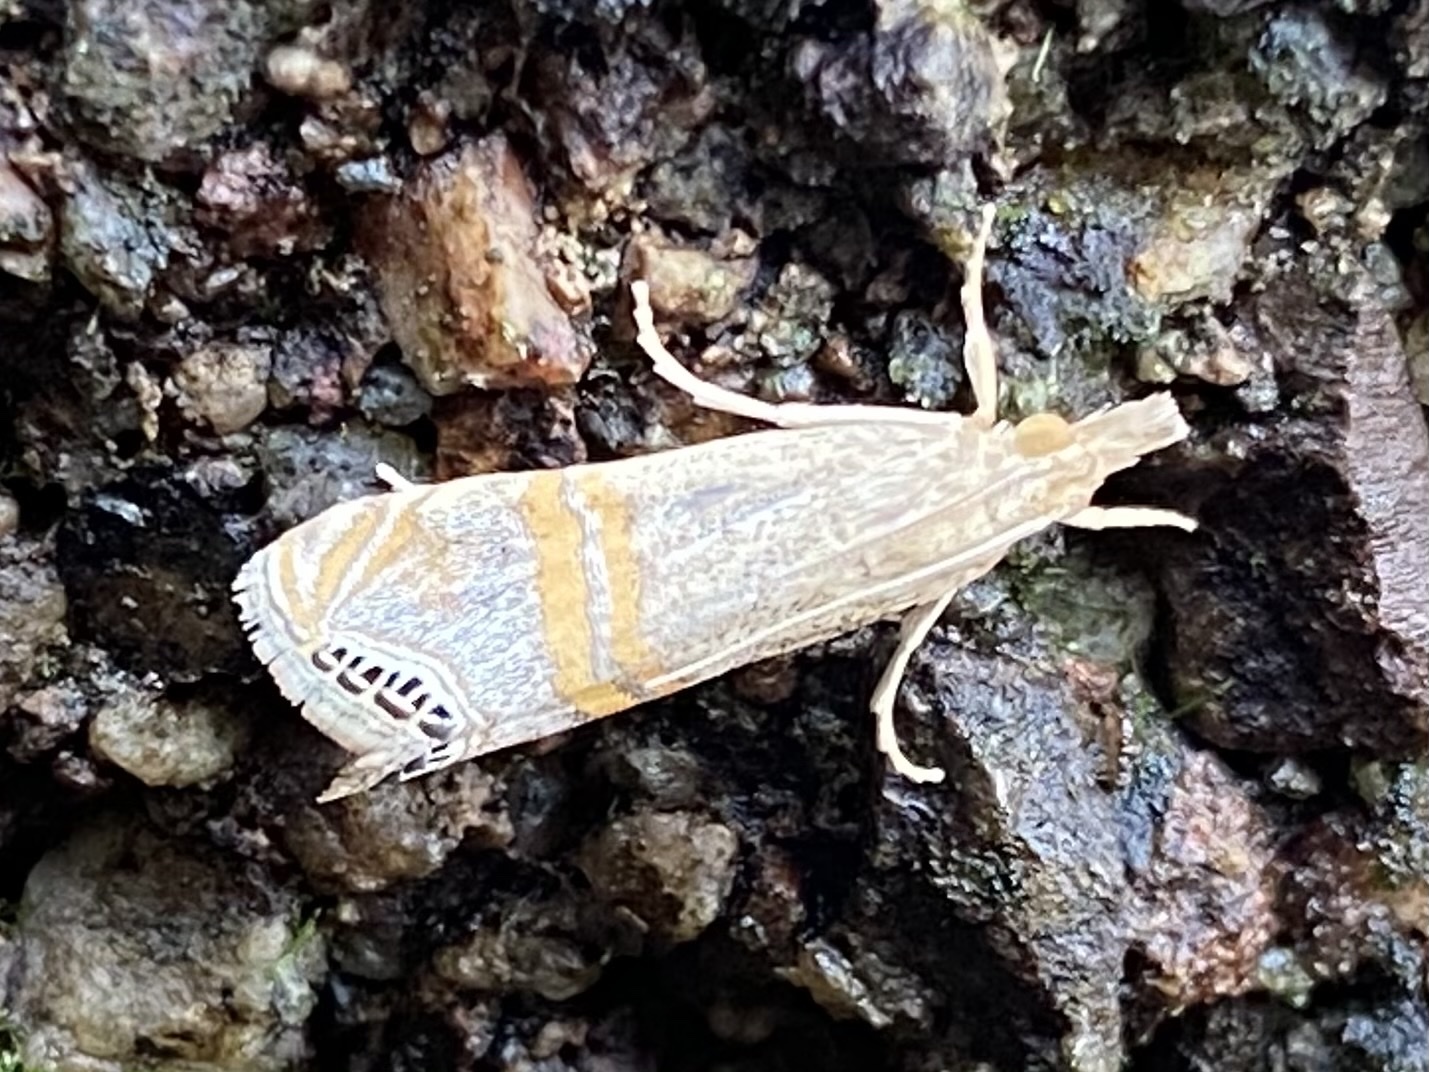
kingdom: Animalia
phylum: Arthropoda
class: Insecta
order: Lepidoptera
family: Crambidae
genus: Euchromius
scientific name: Euchromius ocellea
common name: Necklace veneer moth
